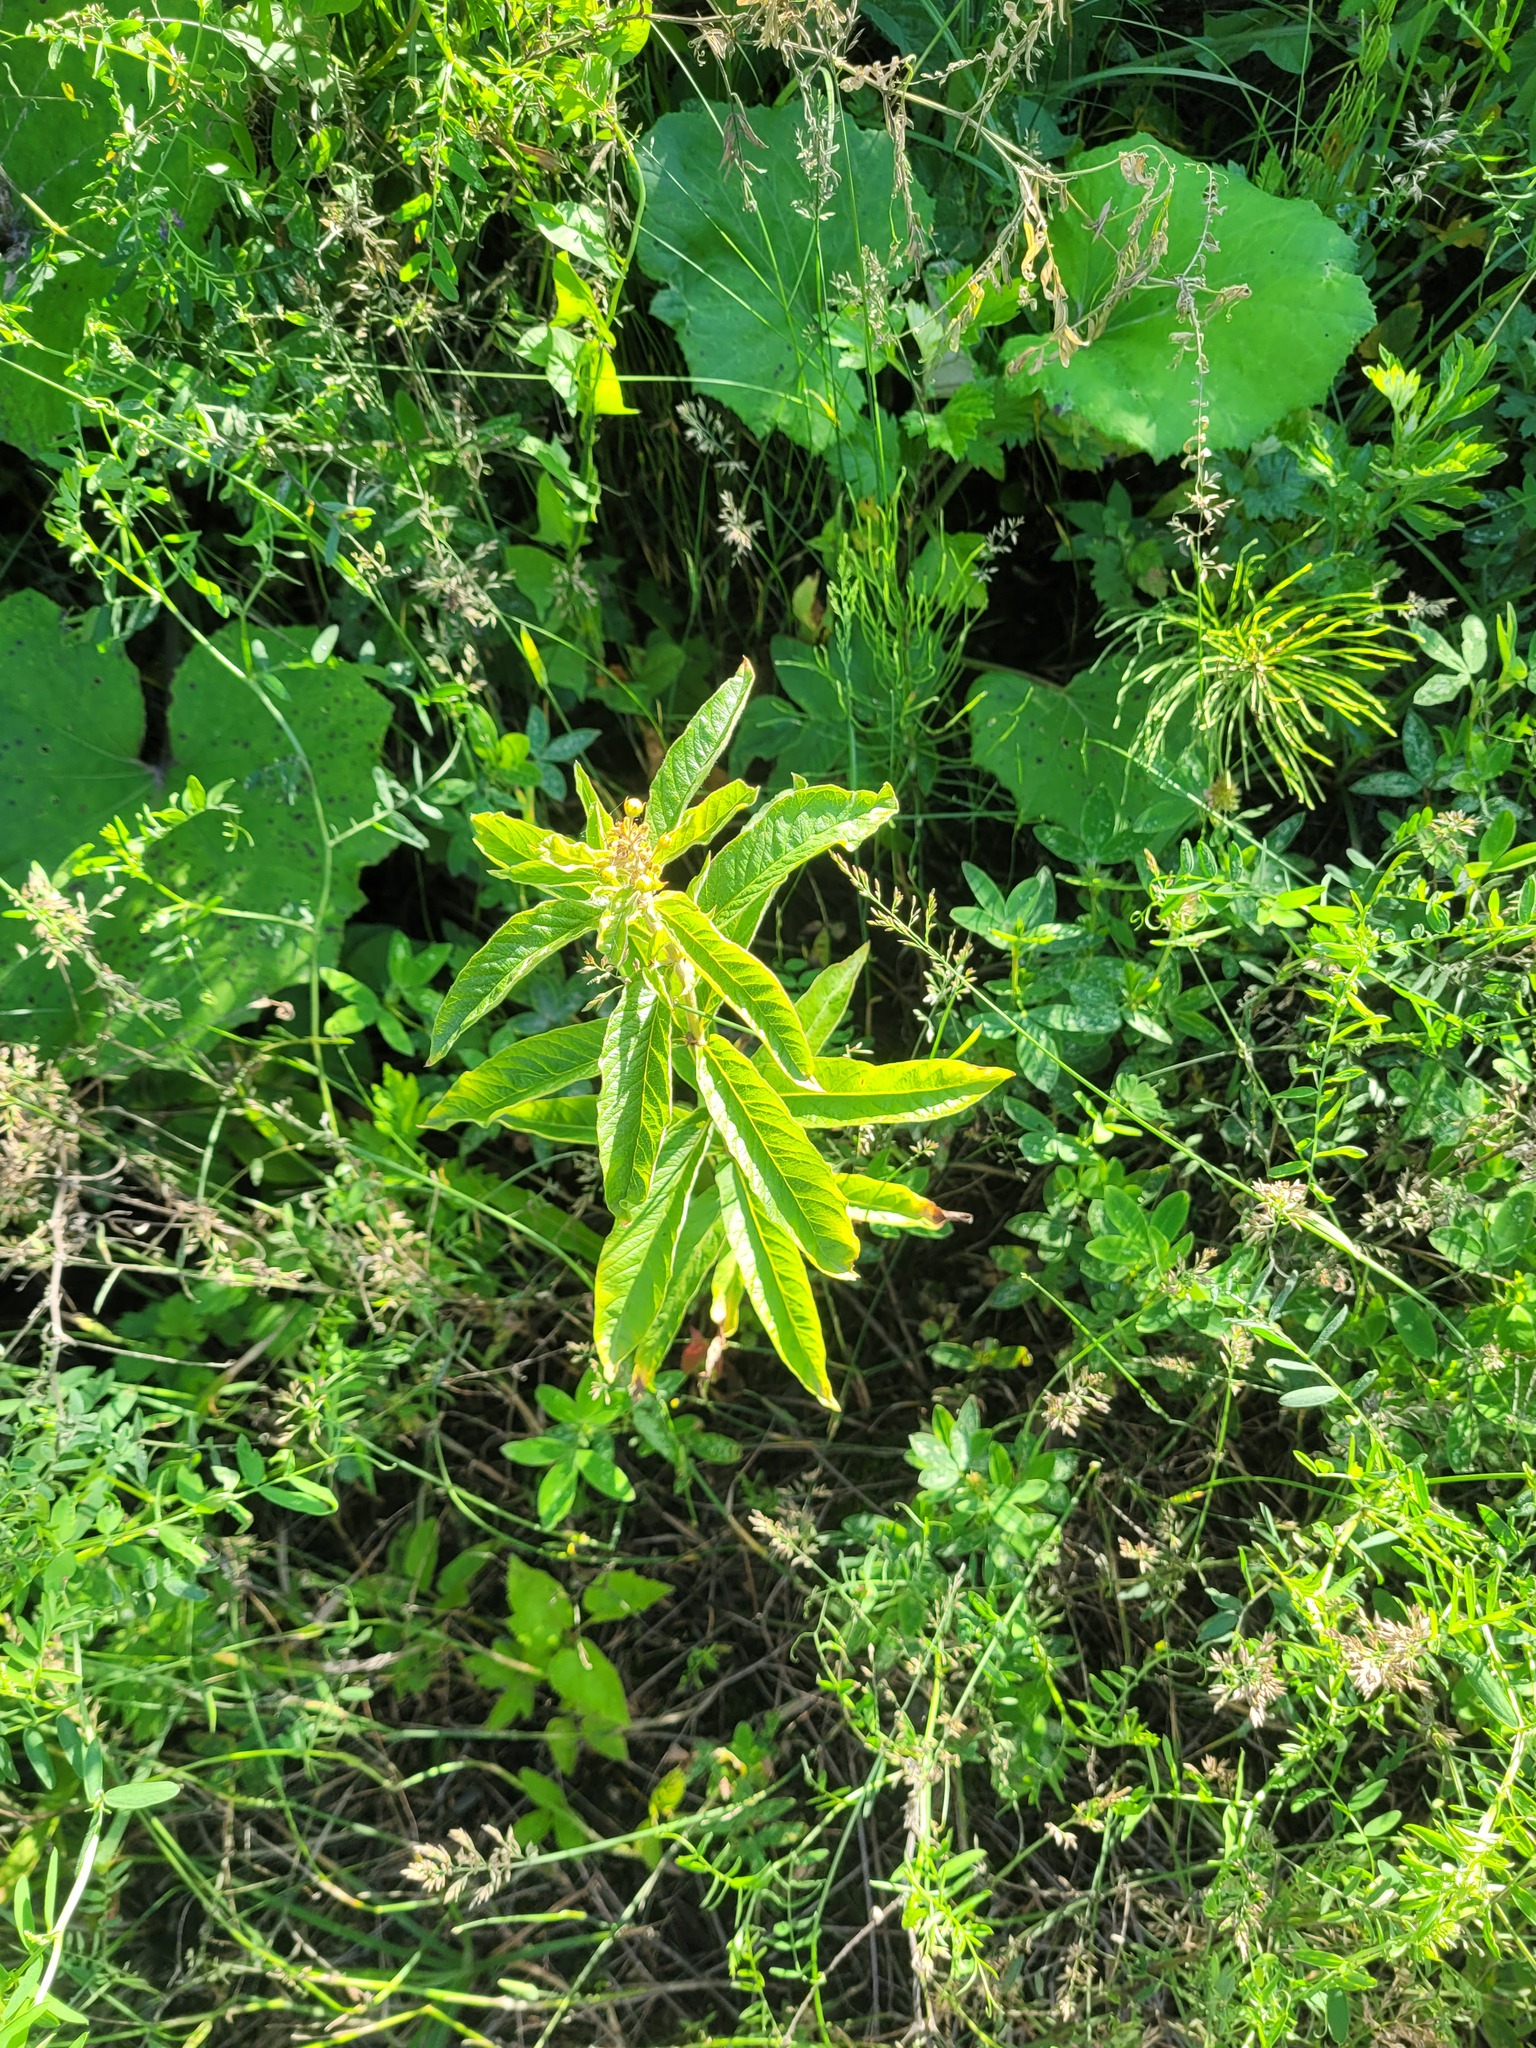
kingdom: Plantae
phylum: Tracheophyta
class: Magnoliopsida
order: Ericales
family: Primulaceae
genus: Lysimachia
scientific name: Lysimachia vulgaris
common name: Yellow loosestrife
